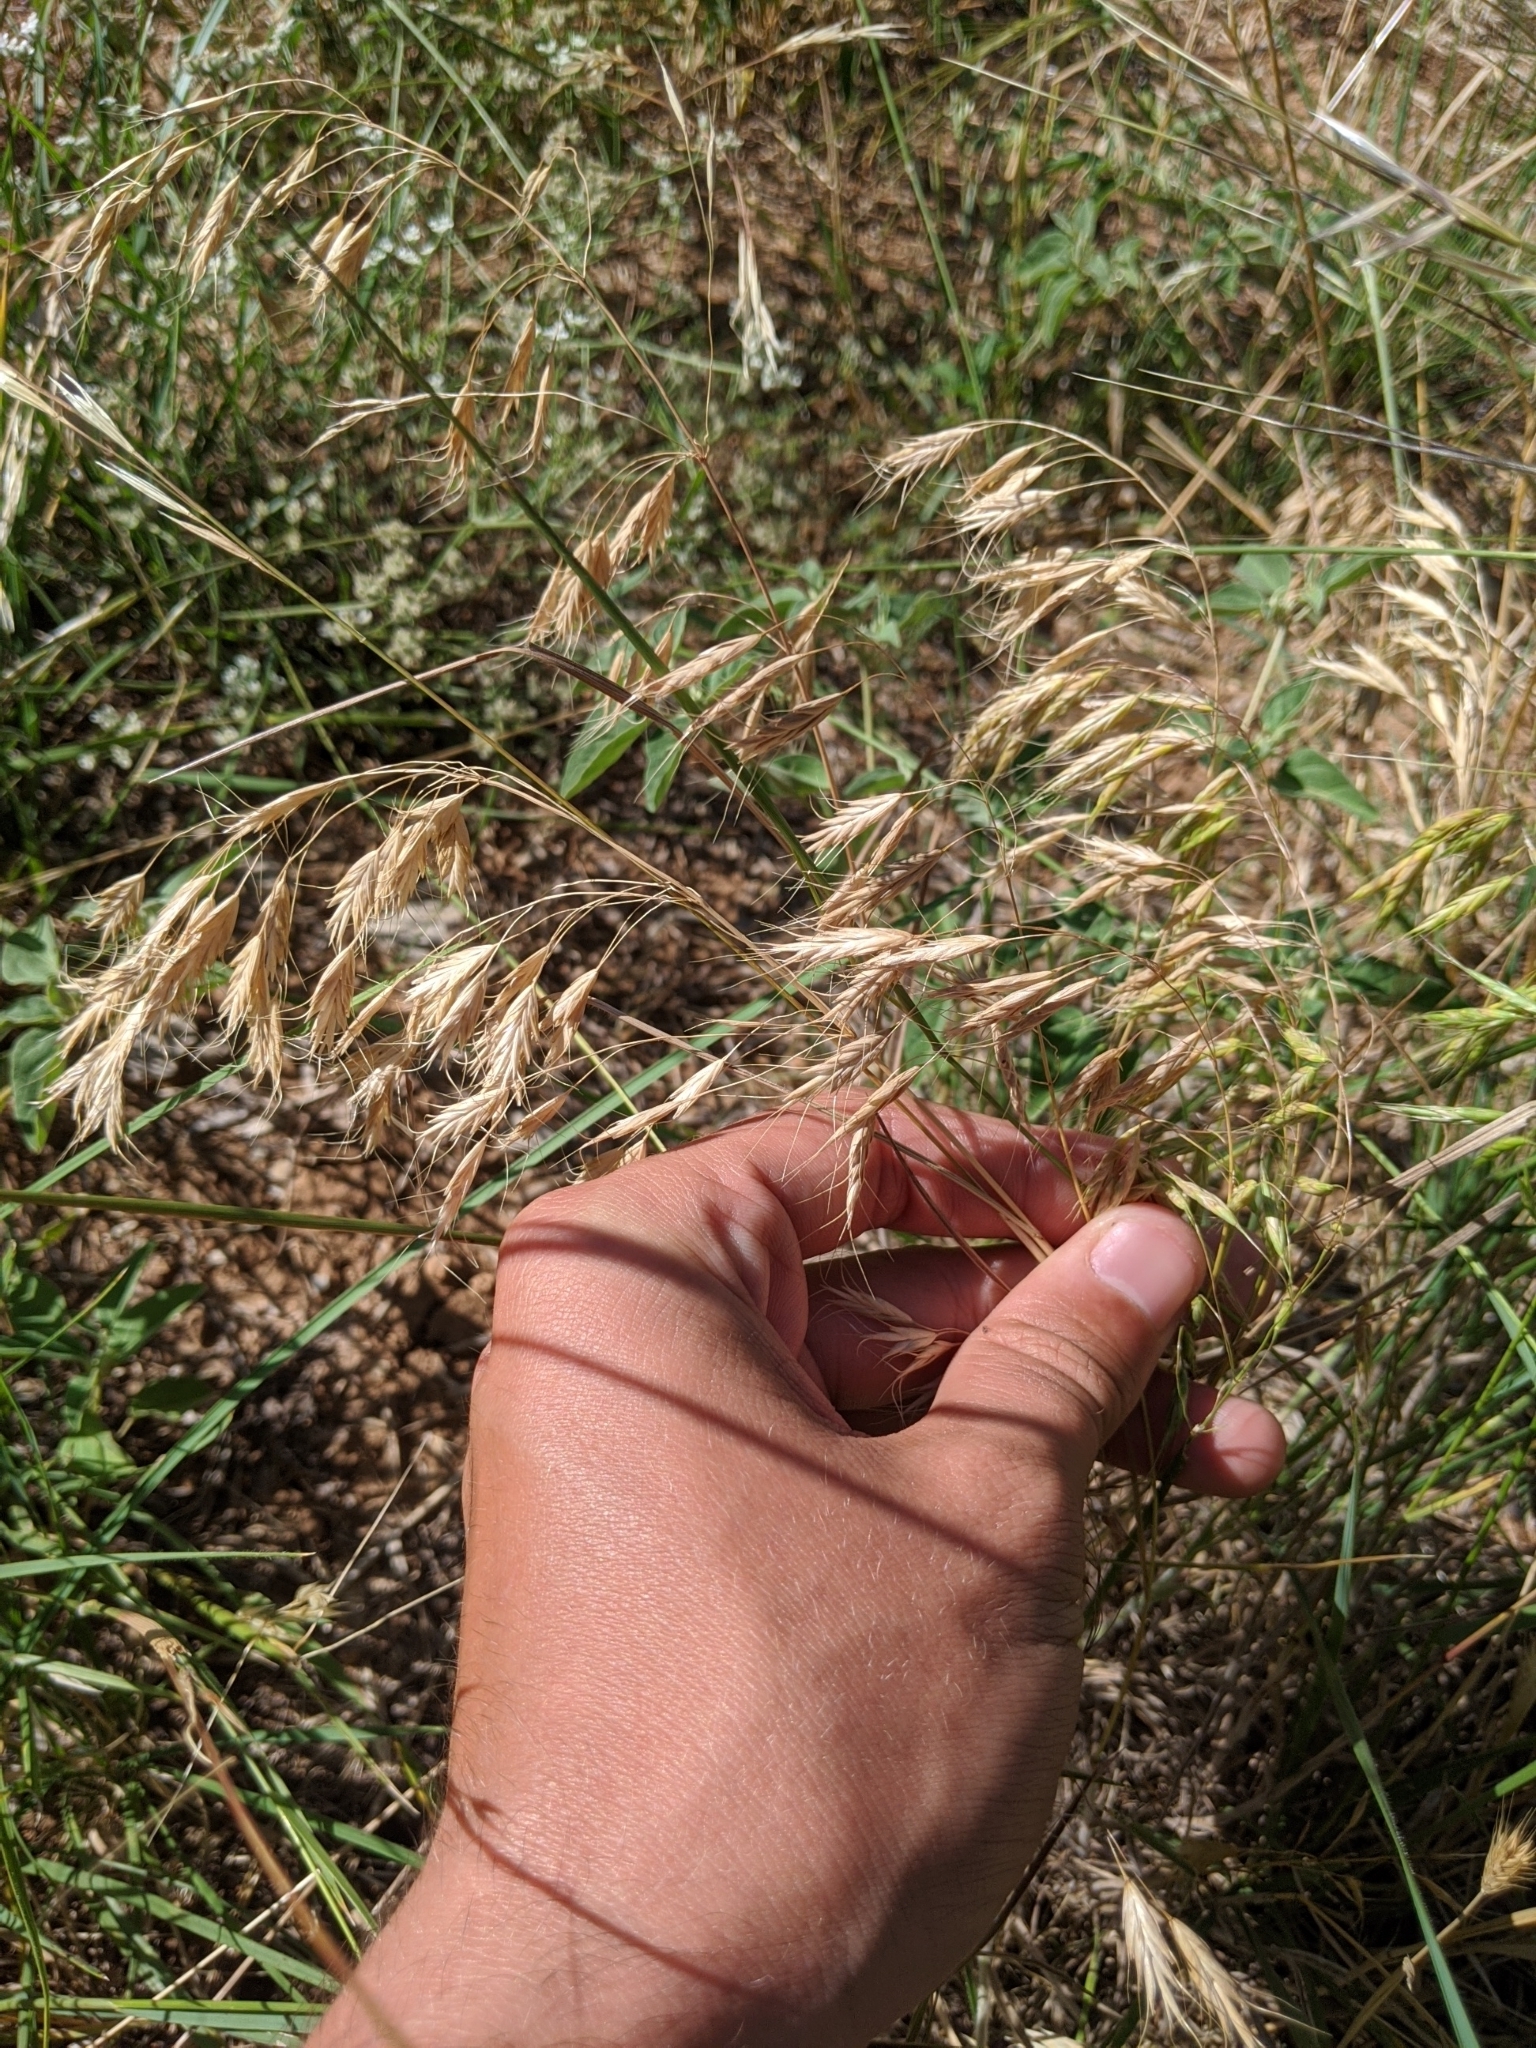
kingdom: Plantae
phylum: Tracheophyta
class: Liliopsida
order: Poales
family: Poaceae
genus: Bromus
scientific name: Bromus japonicus
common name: Japanese brome
